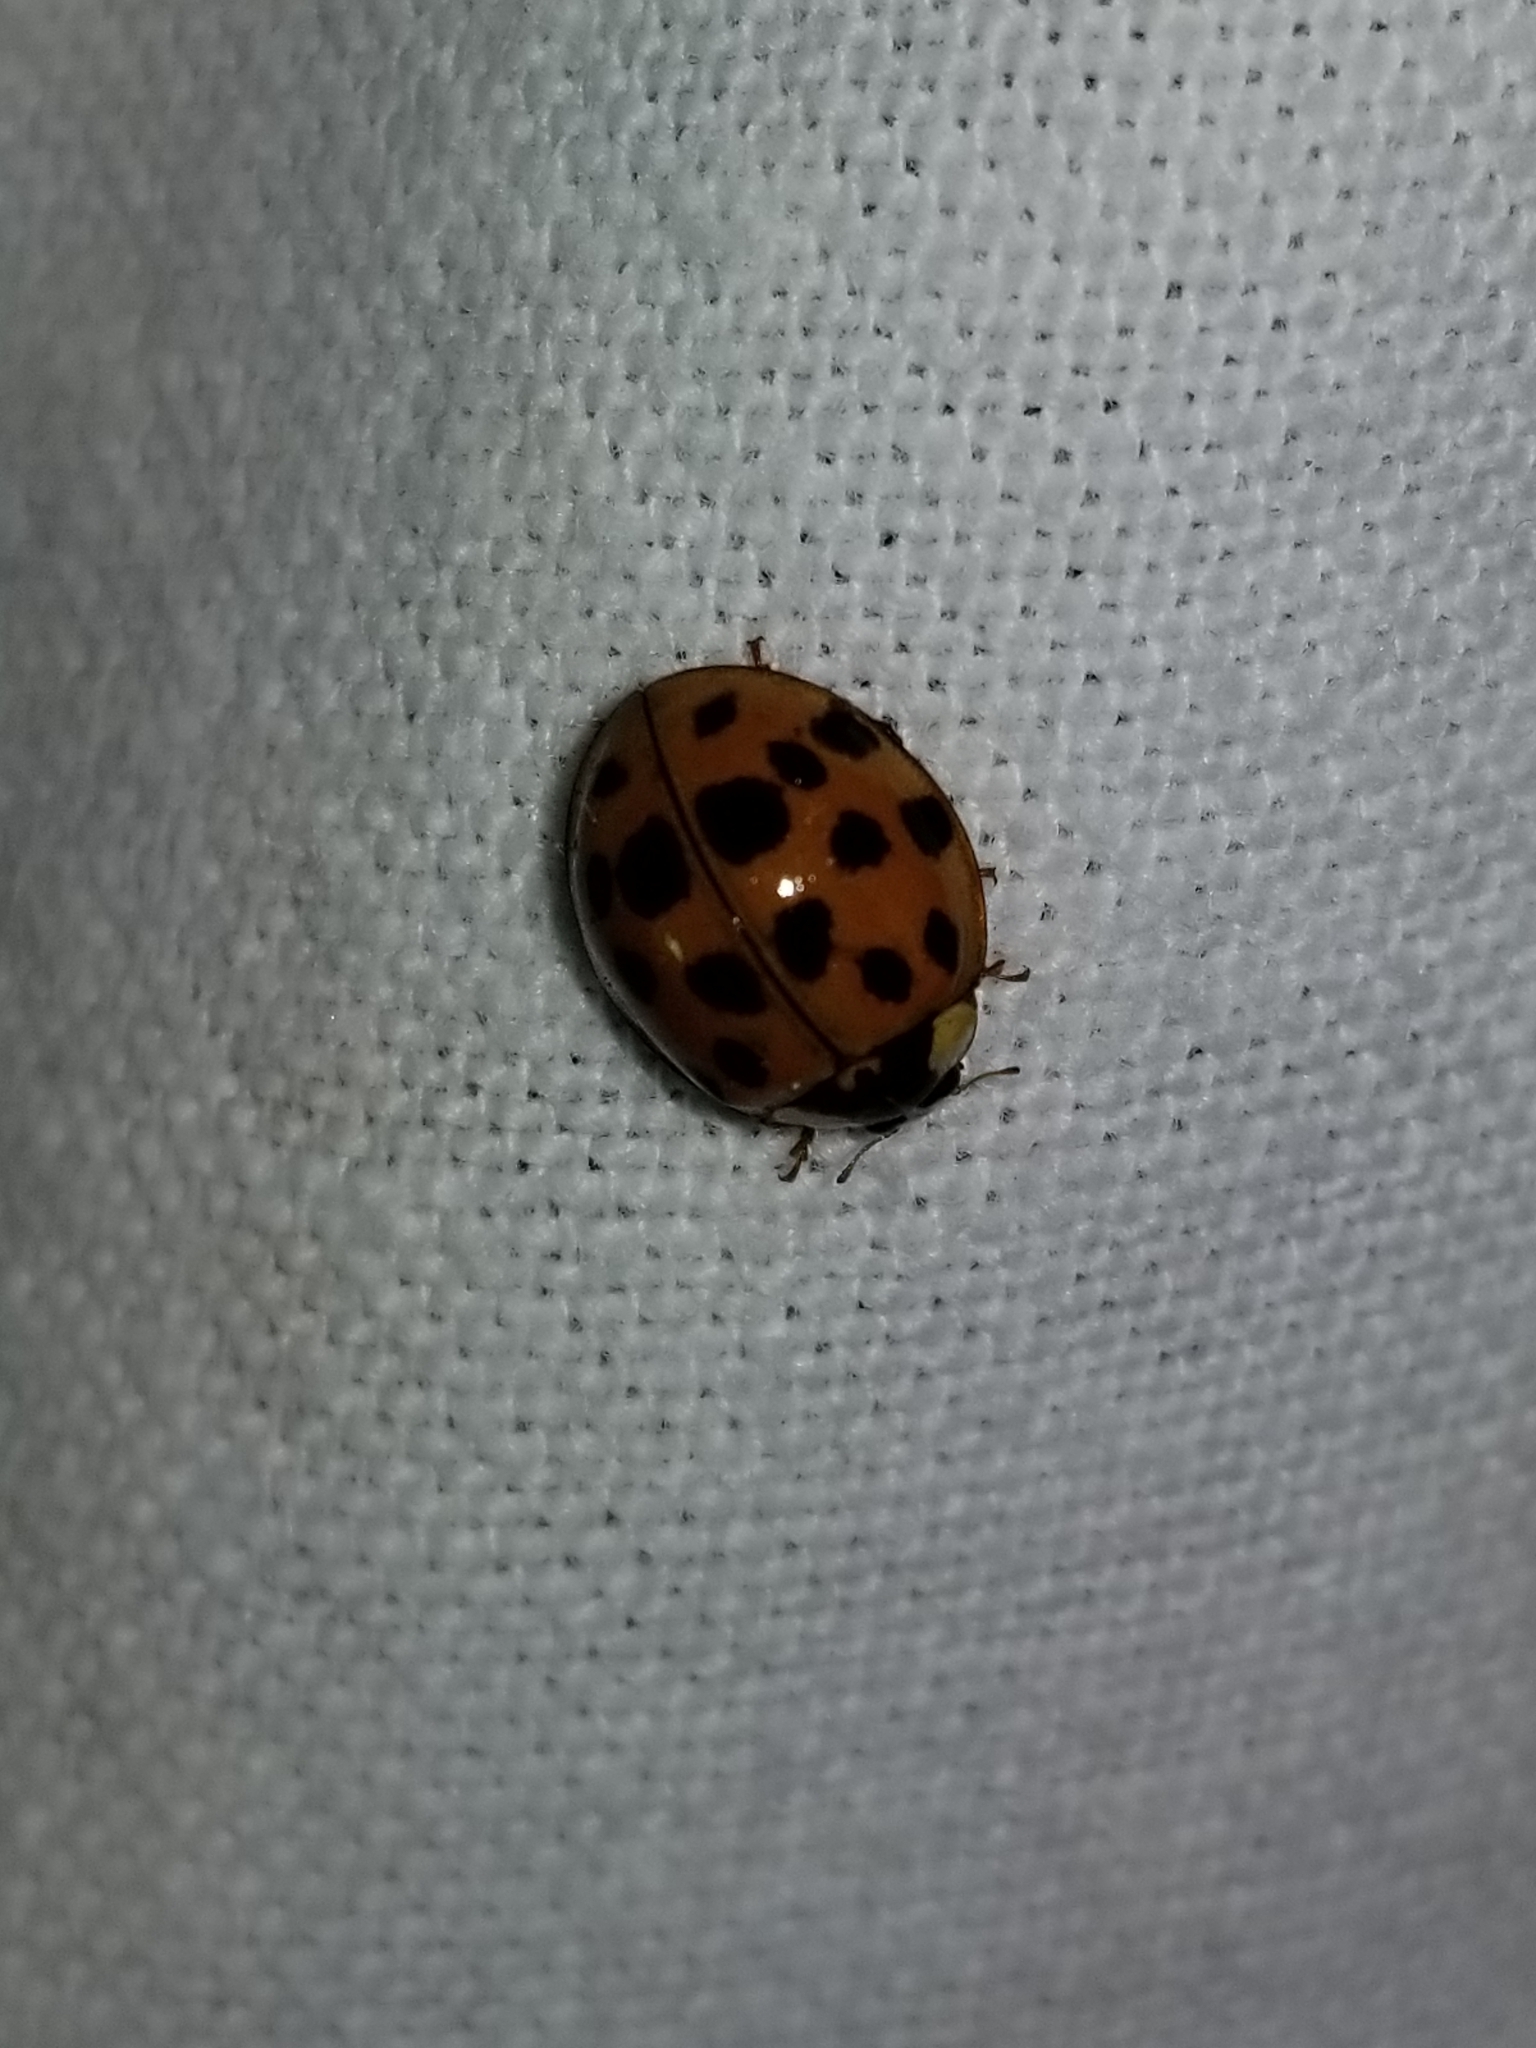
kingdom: Animalia
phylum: Arthropoda
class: Insecta
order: Coleoptera
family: Coccinellidae
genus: Harmonia
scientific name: Harmonia axyridis
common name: Harlequin ladybird
